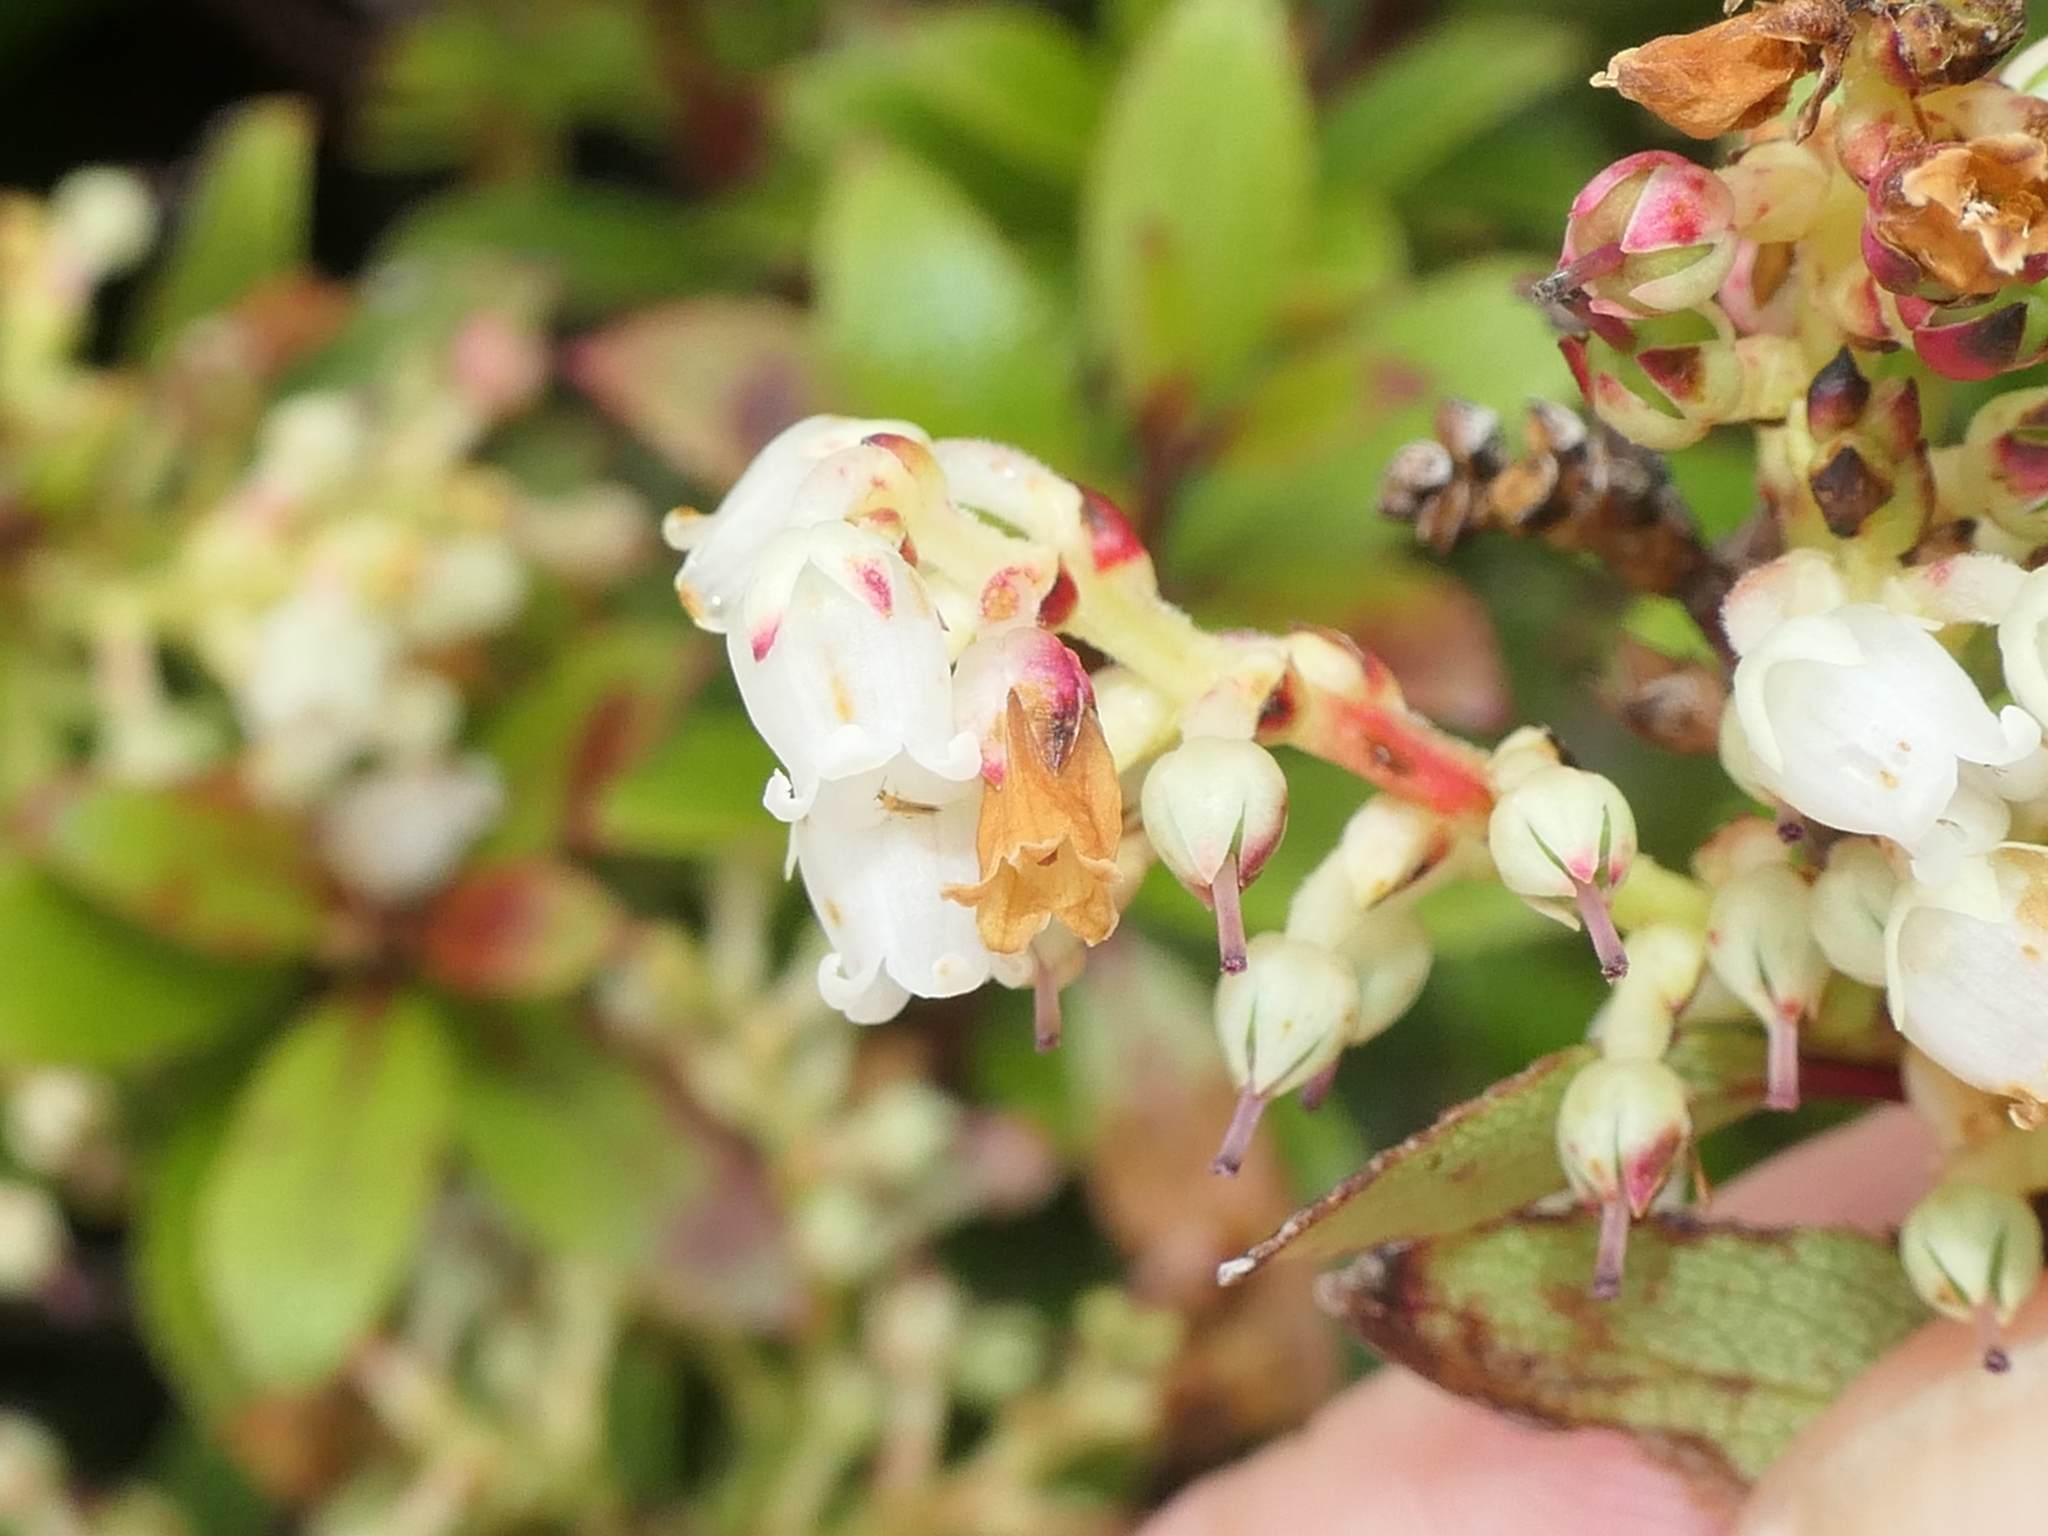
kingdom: Plantae
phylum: Tracheophyta
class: Magnoliopsida
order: Ericales
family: Ericaceae
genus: Gaultheria
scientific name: Gaultheria crassa
